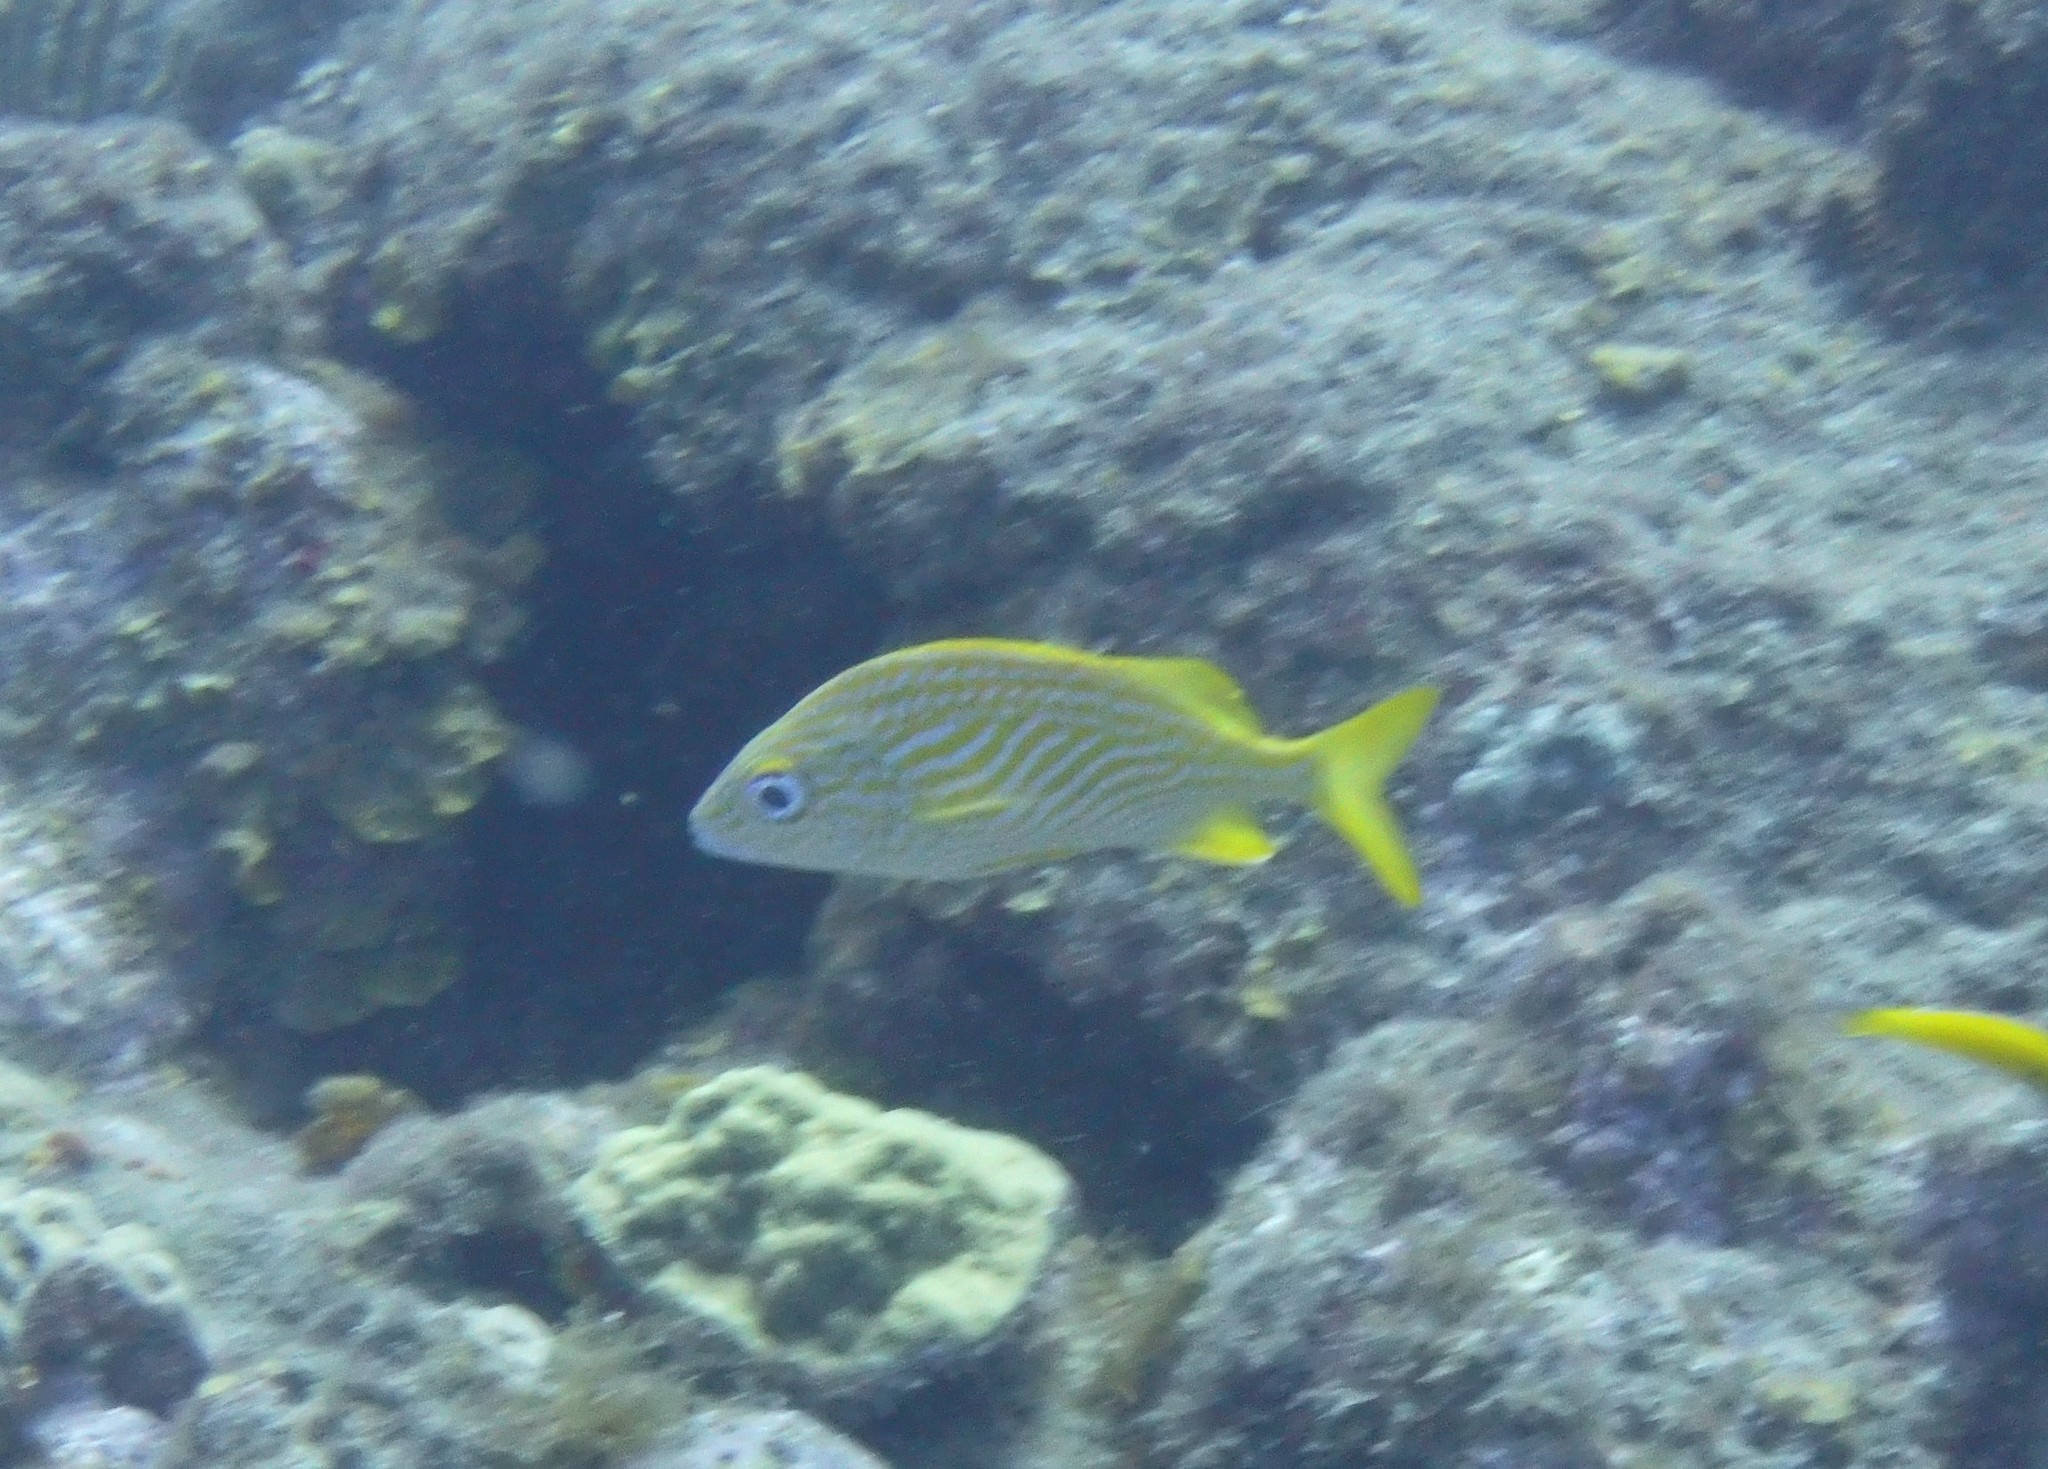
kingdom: Animalia
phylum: Chordata
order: Perciformes
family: Haemulidae
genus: Haemulon
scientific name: Haemulon flavolineatum
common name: French grunt
